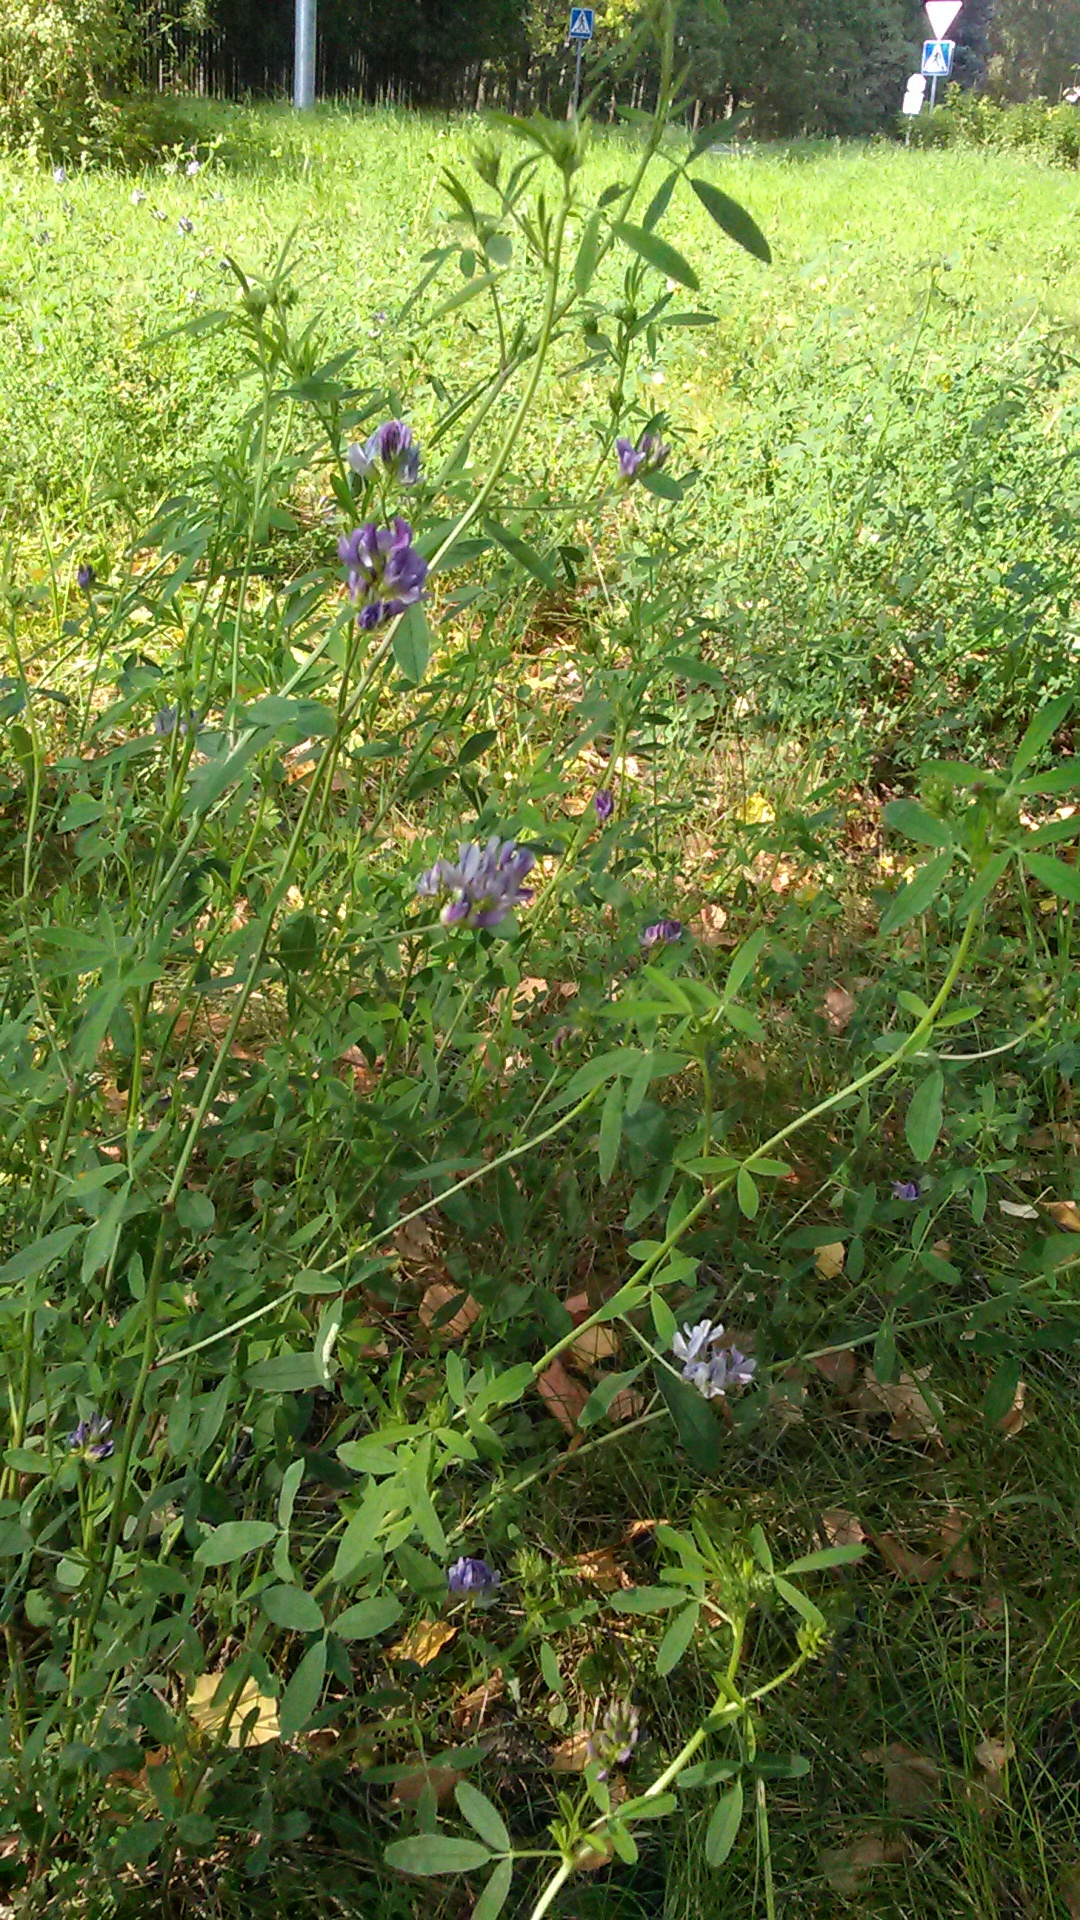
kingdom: Plantae
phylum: Tracheophyta
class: Magnoliopsida
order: Fabales
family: Fabaceae
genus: Medicago
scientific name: Medicago varia
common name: Sand lucerne
